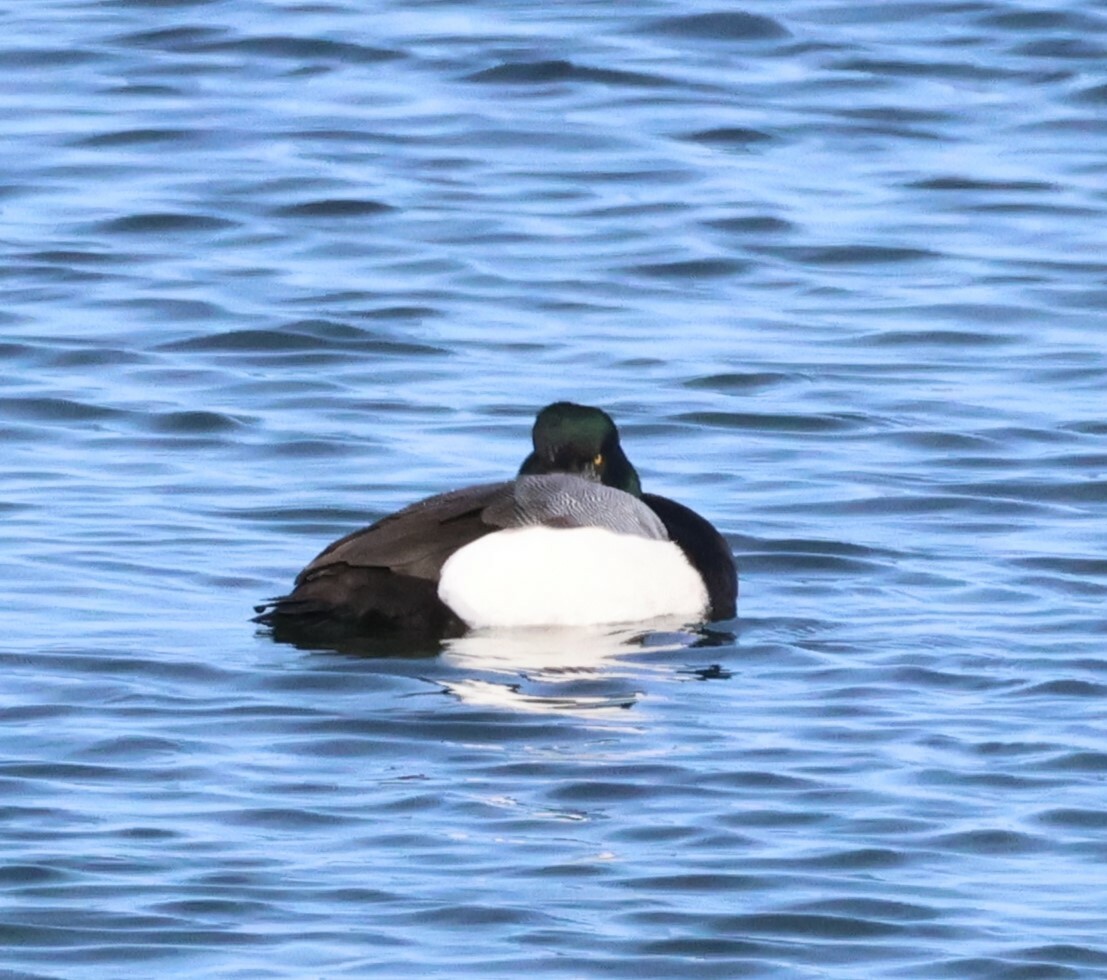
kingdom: Animalia
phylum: Chordata
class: Aves
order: Anseriformes
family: Anatidae
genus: Aythya
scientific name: Aythya marila
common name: Greater scaup
